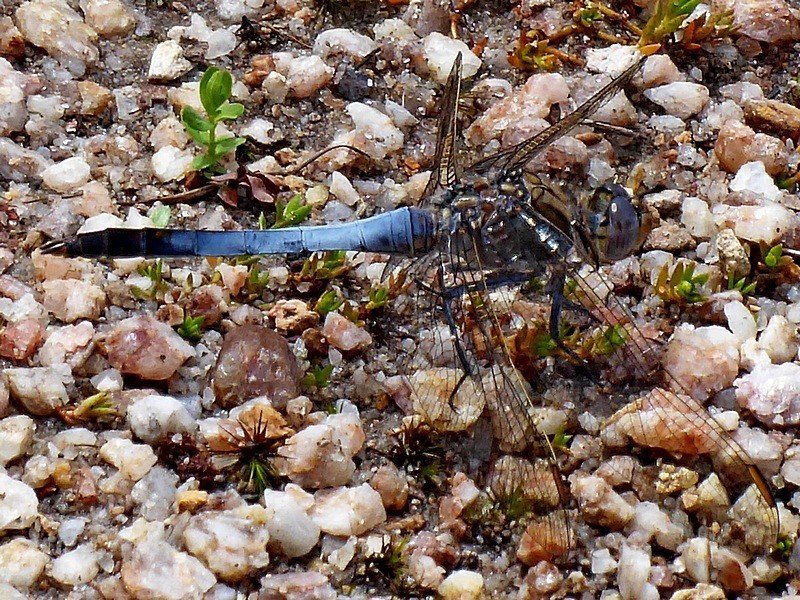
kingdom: Animalia
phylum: Arthropoda
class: Insecta
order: Odonata
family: Libellulidae
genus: Orthetrum
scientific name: Orthetrum caledonicum
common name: Blue skimmer
